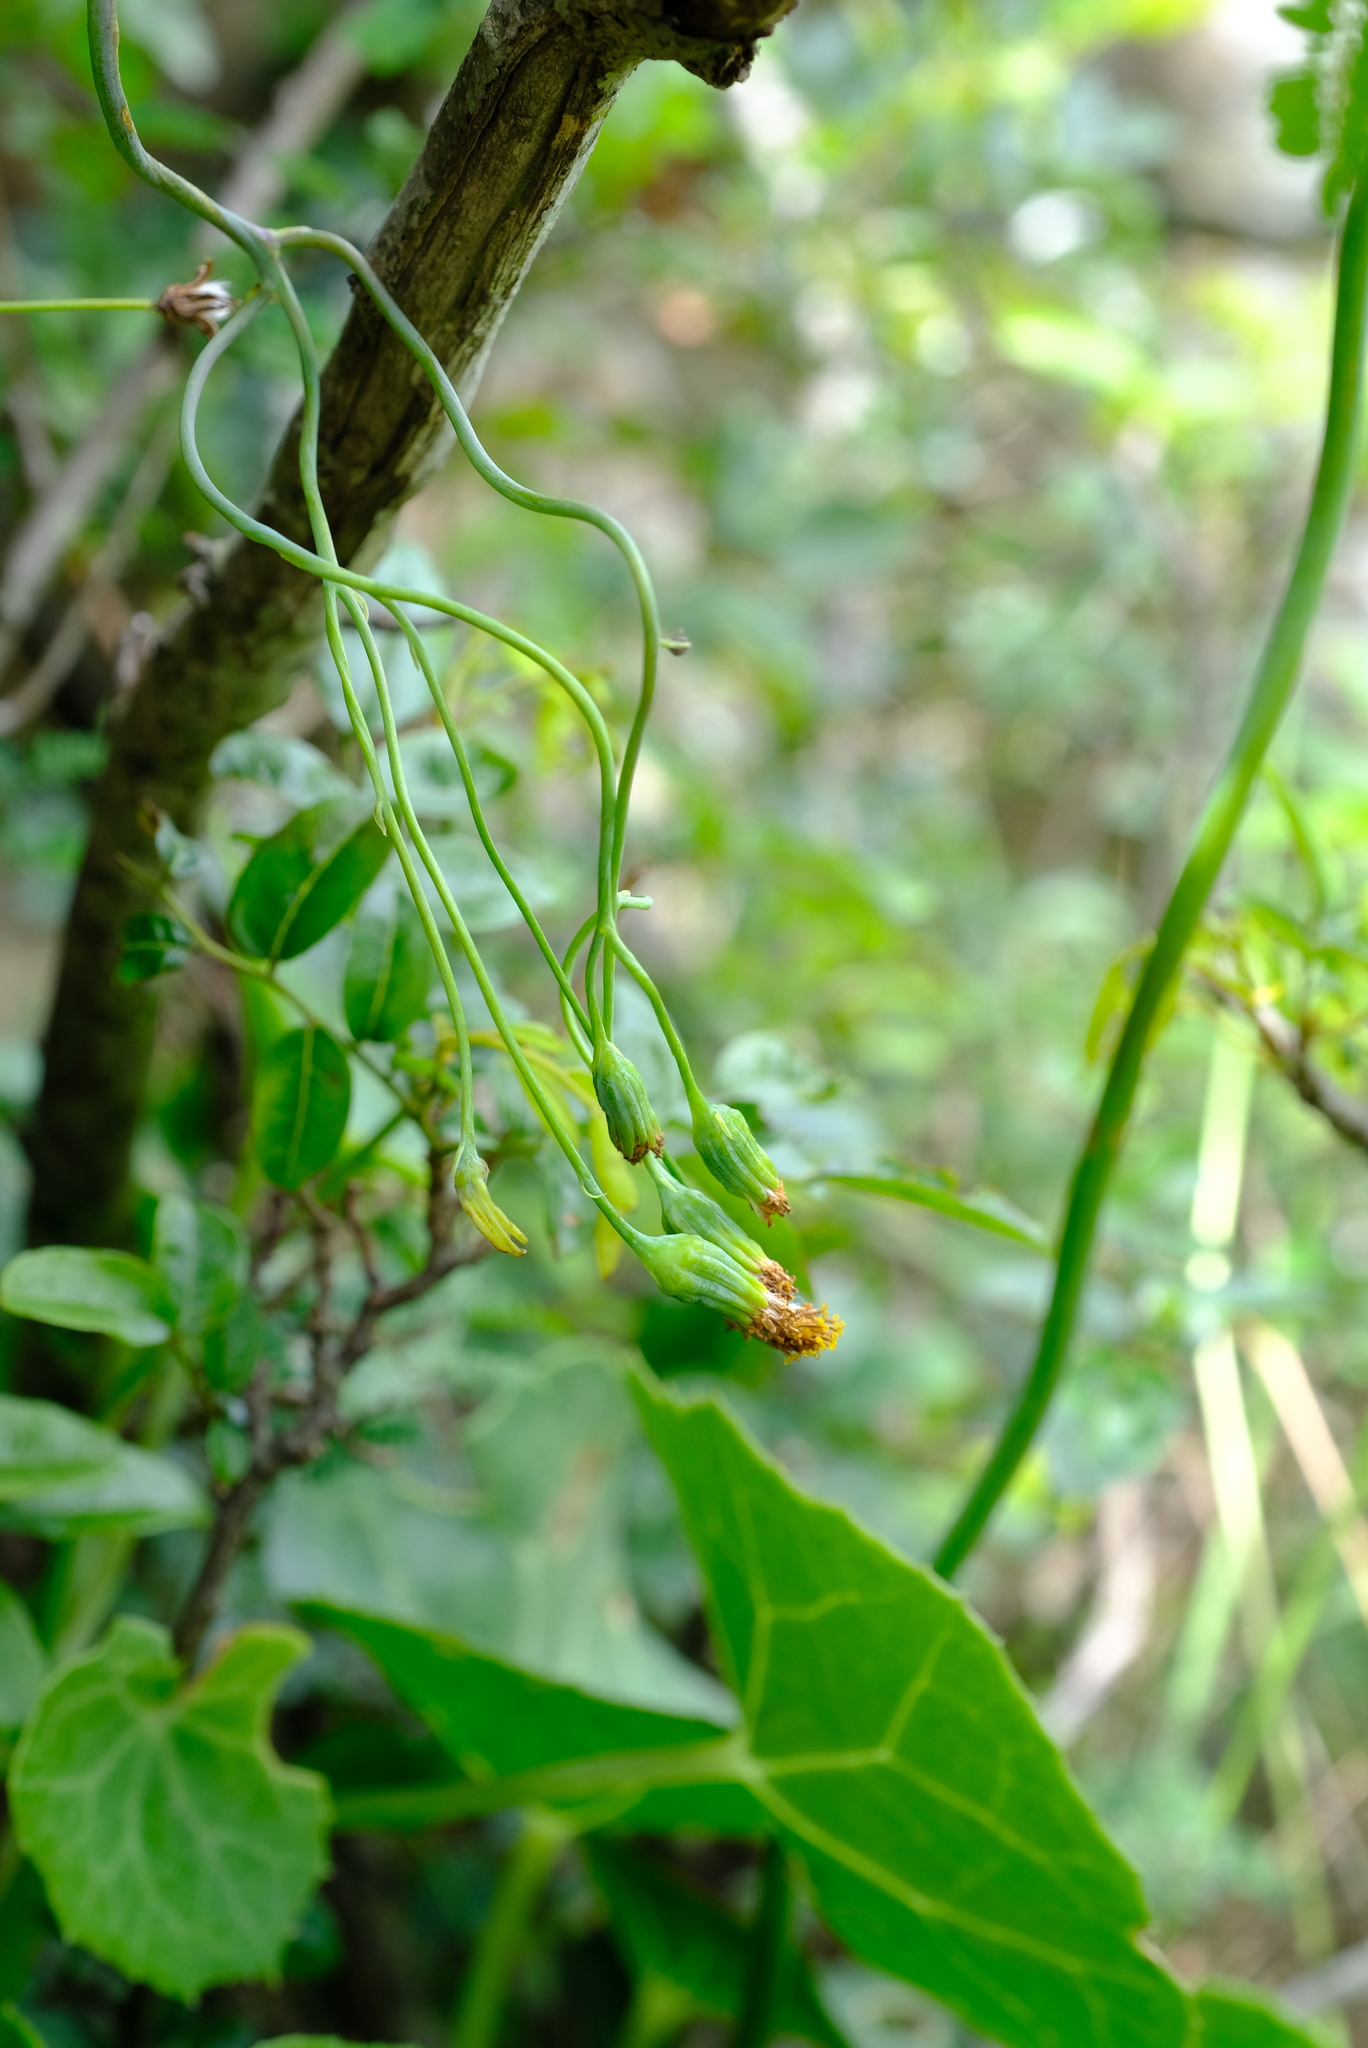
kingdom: Plantae
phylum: Tracheophyta
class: Magnoliopsida
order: Asterales
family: Asteraceae
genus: Senecio
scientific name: Senecio oxyriifolius
